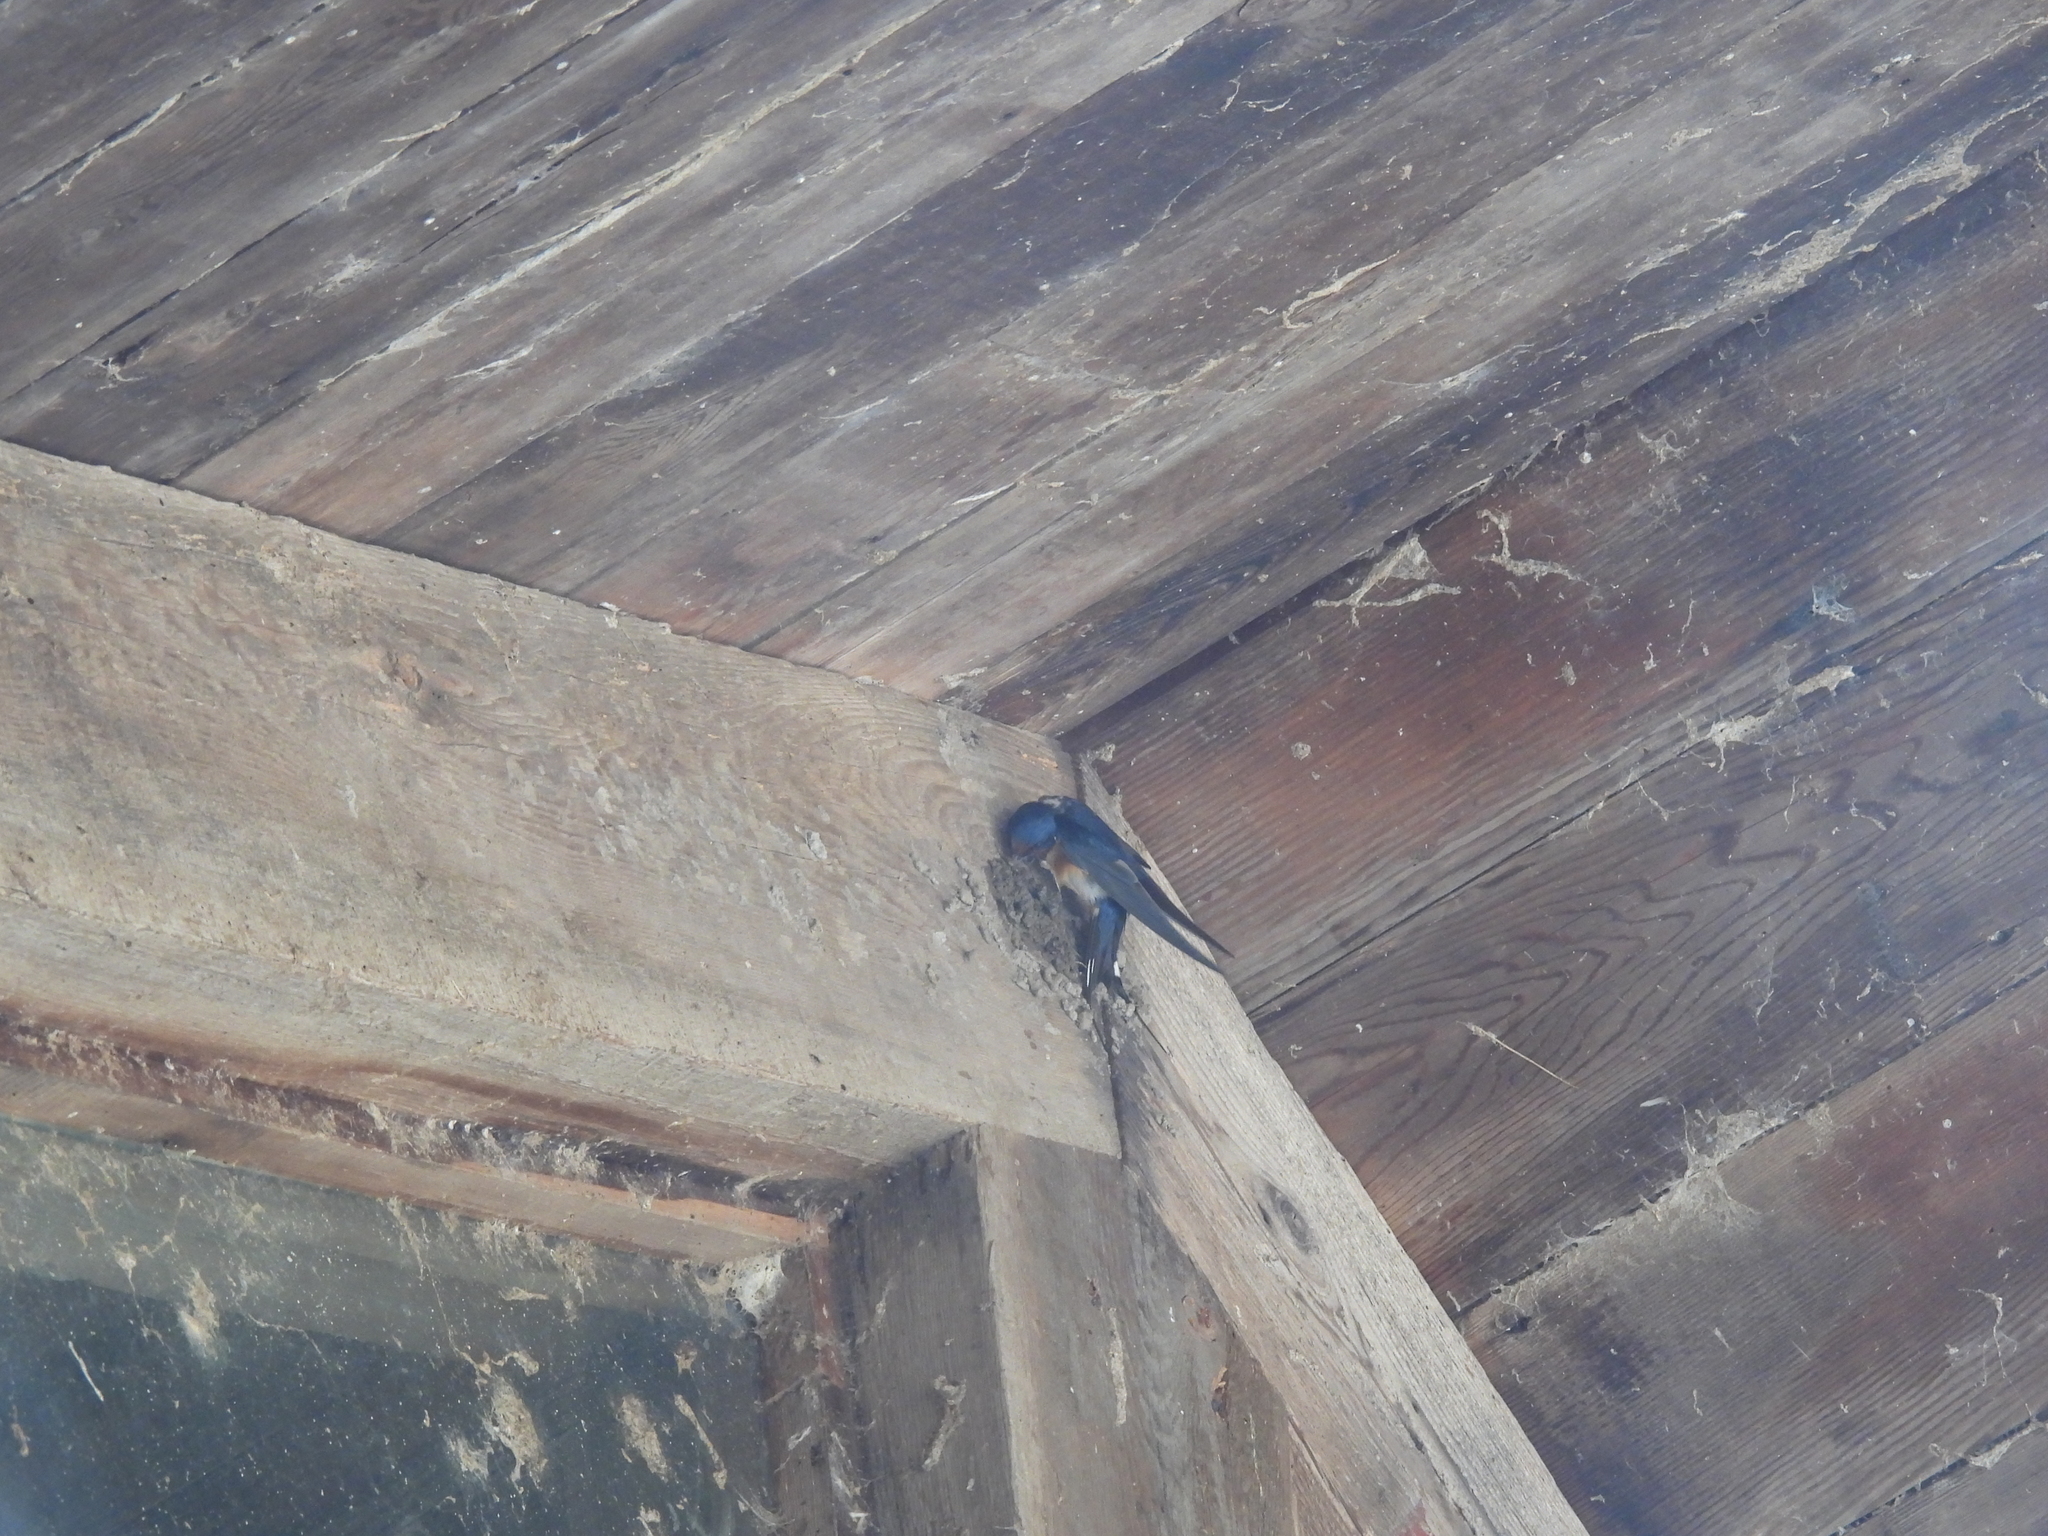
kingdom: Animalia
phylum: Chordata
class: Aves
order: Passeriformes
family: Hirundinidae
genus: Hirundo
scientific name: Hirundo rustica
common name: Barn swallow
